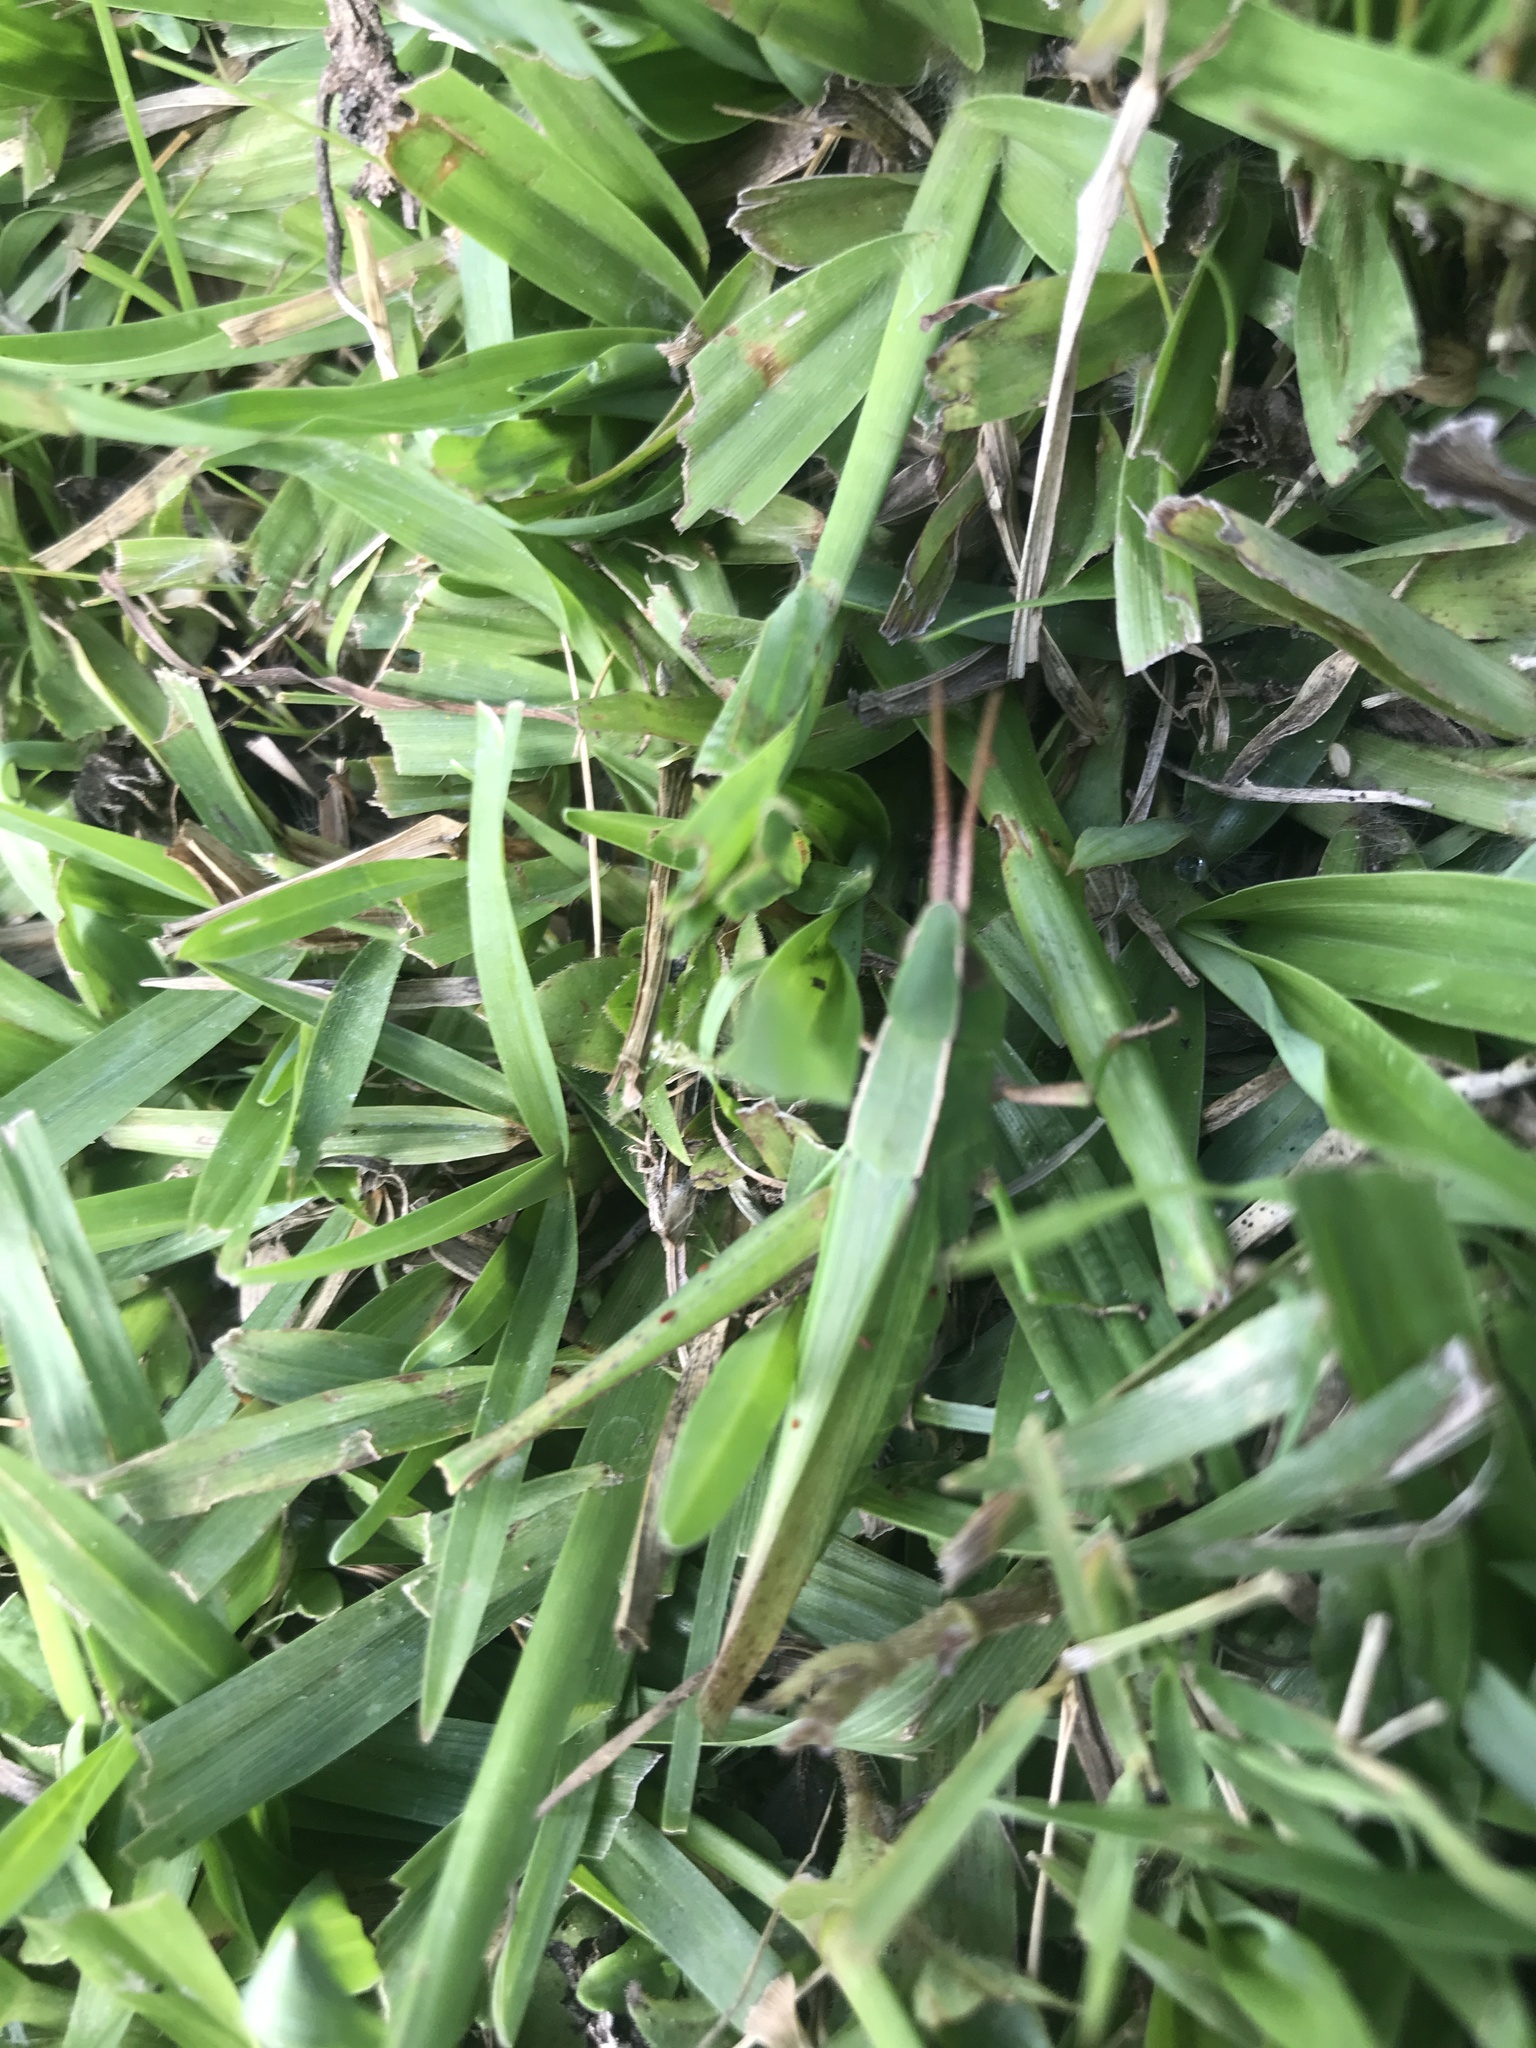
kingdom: Animalia
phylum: Arthropoda
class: Insecta
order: Orthoptera
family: Acrididae
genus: Metaleptea
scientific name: Metaleptea adspersa
